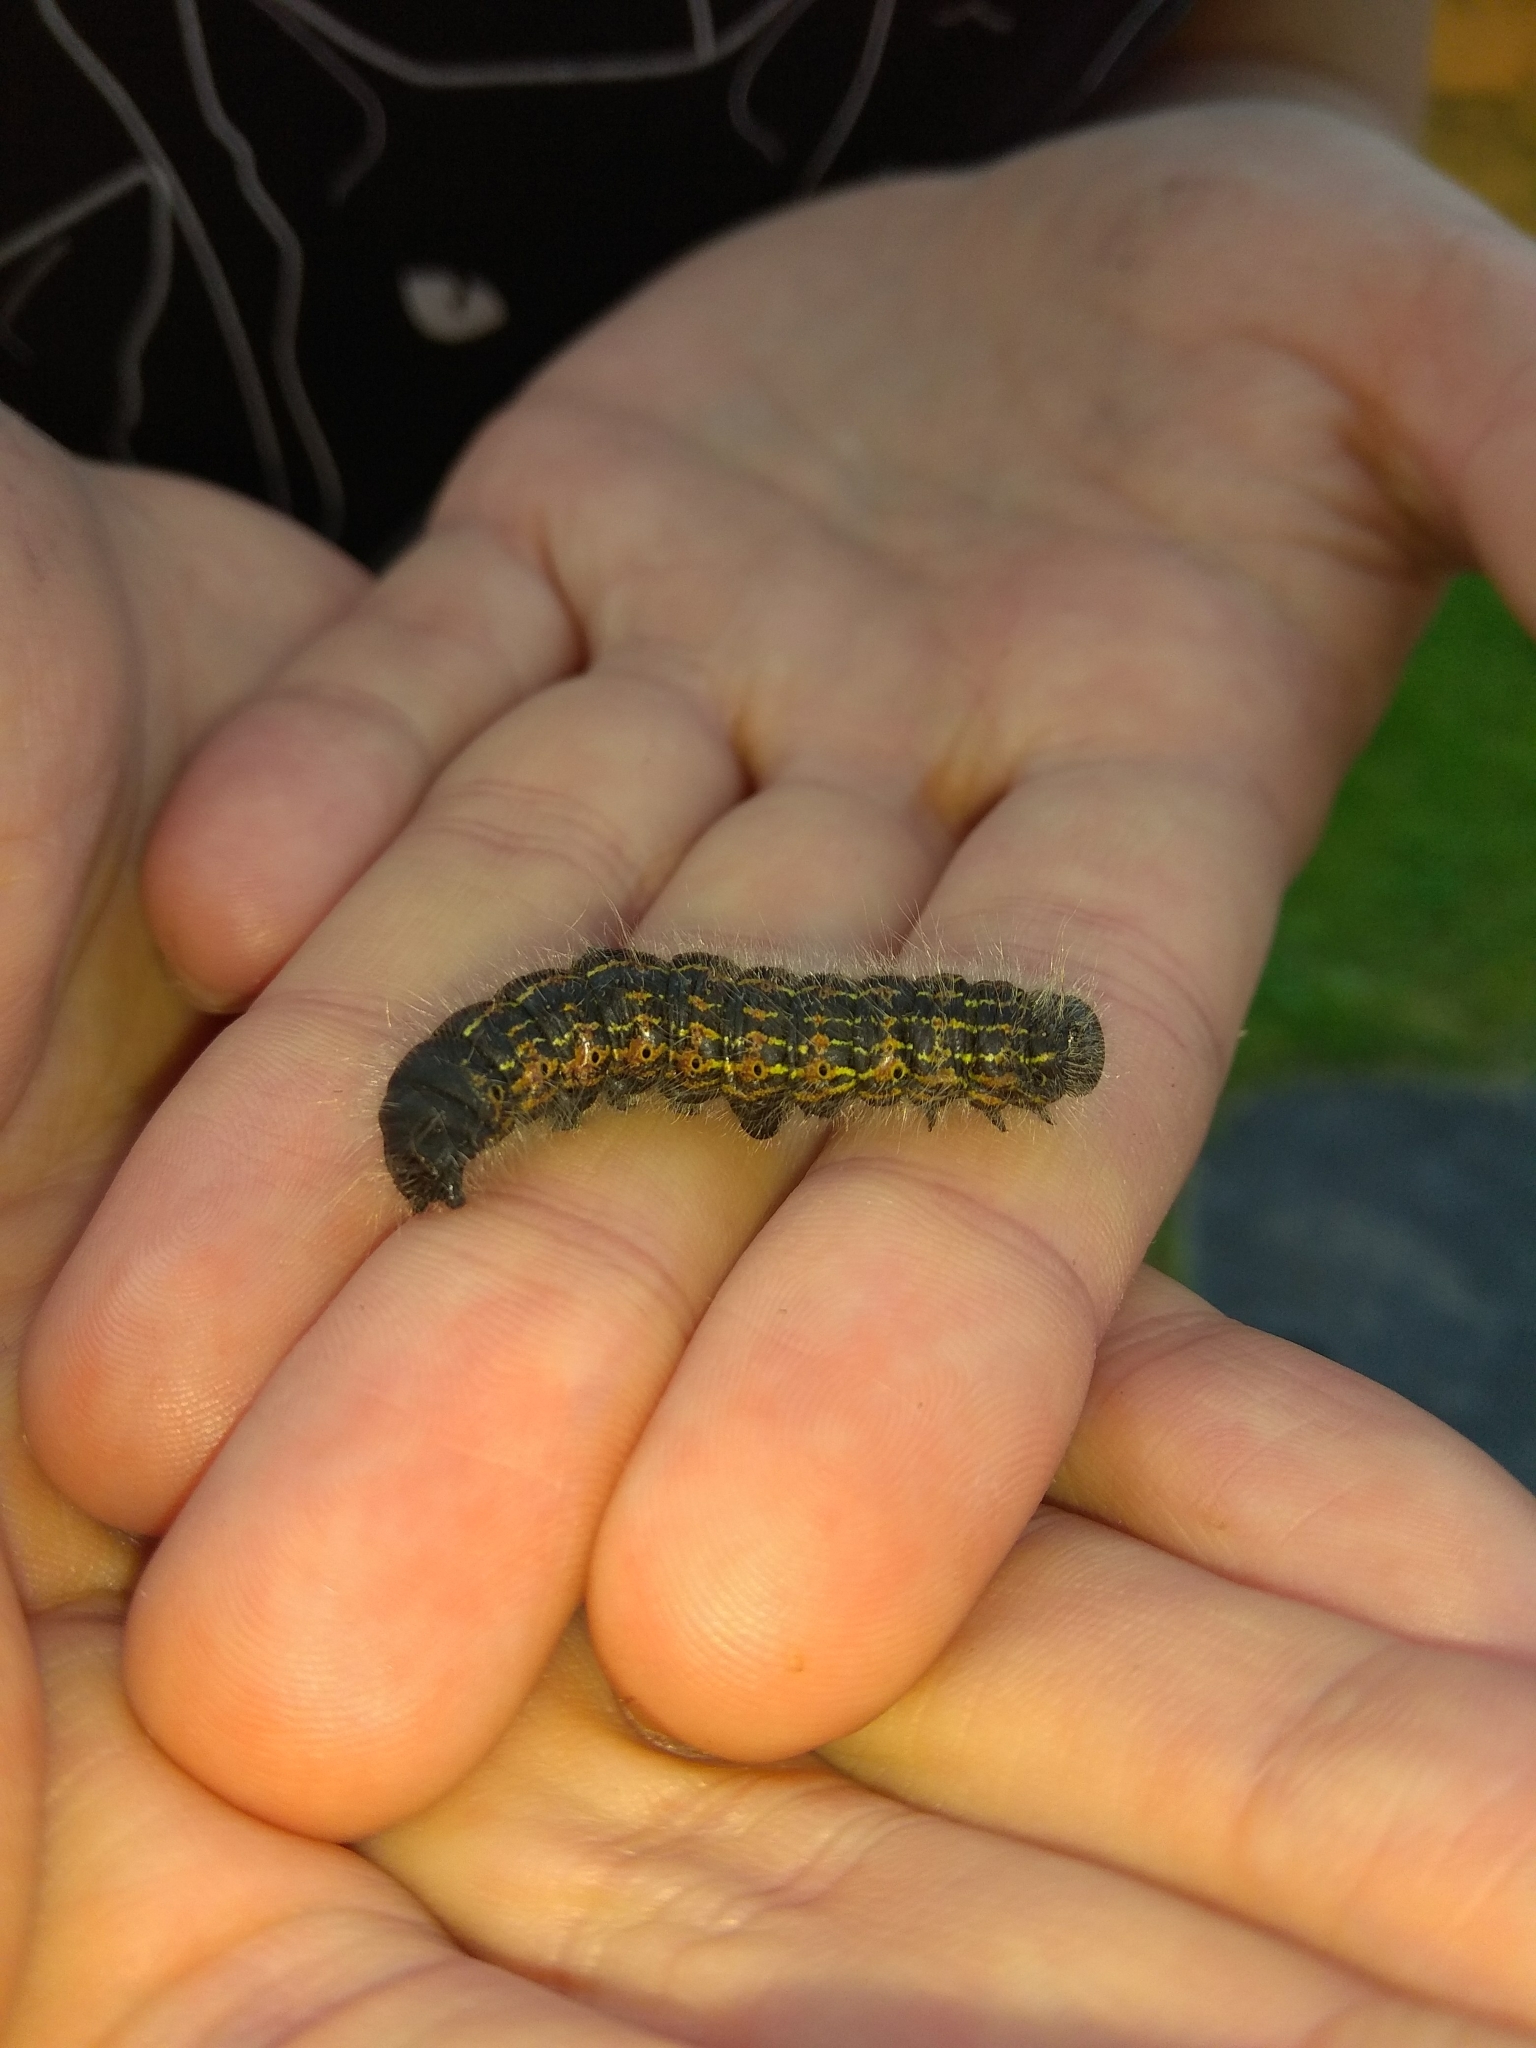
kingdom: Animalia
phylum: Arthropoda
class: Insecta
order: Lepidoptera
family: Notodontidae
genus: Phalera
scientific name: Phalera bucephala
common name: Buff-tip
